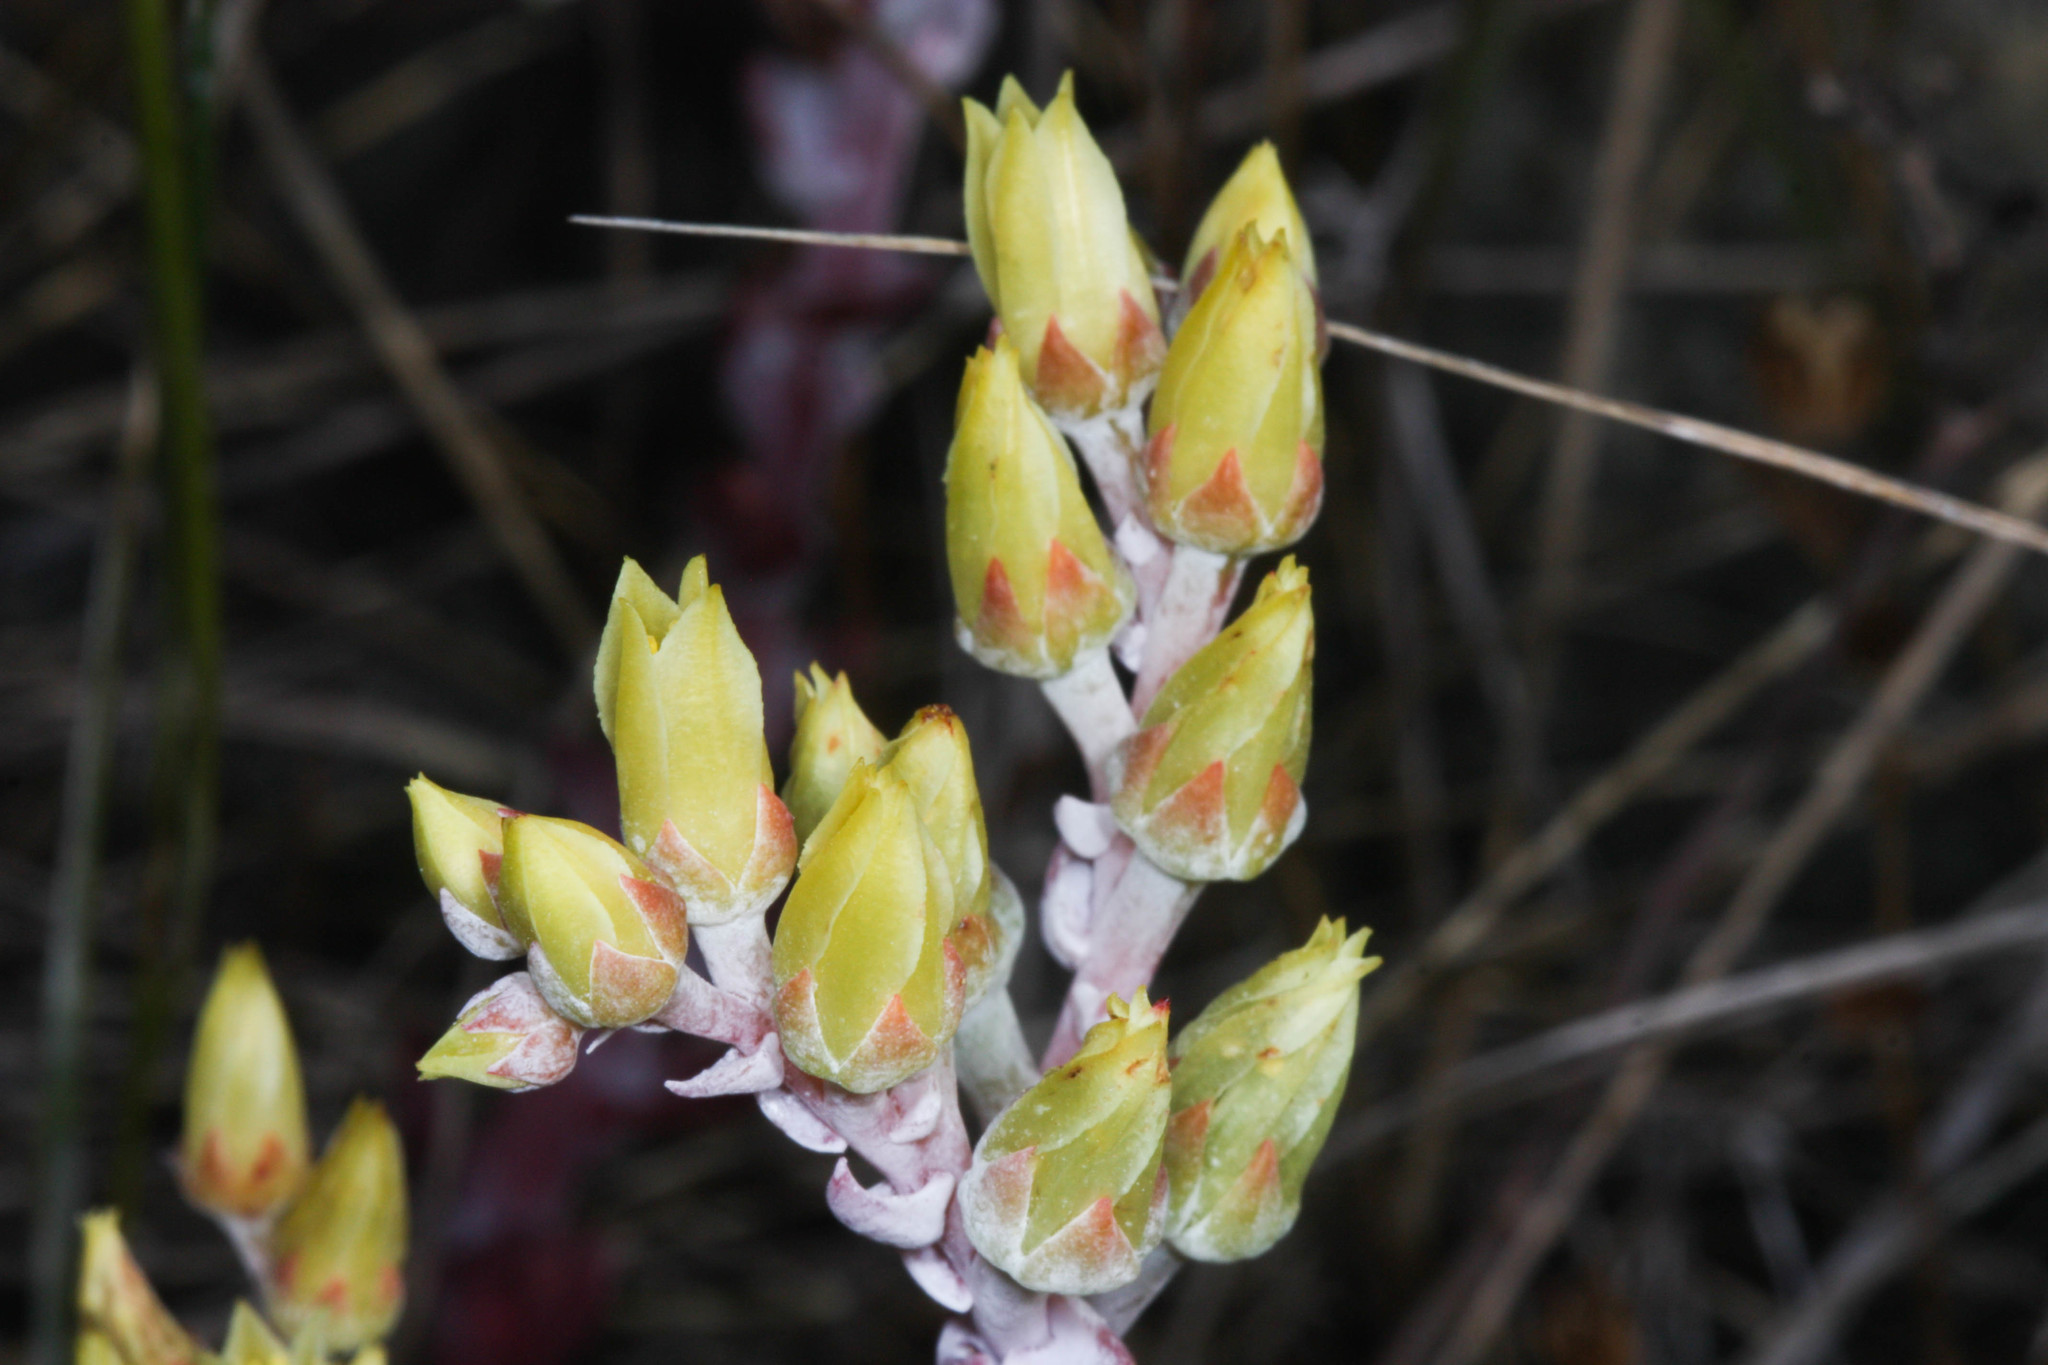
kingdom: Plantae
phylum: Tracheophyta
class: Magnoliopsida
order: Saxifragales
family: Crassulaceae
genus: Dudleya
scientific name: Dudleya farinosa
